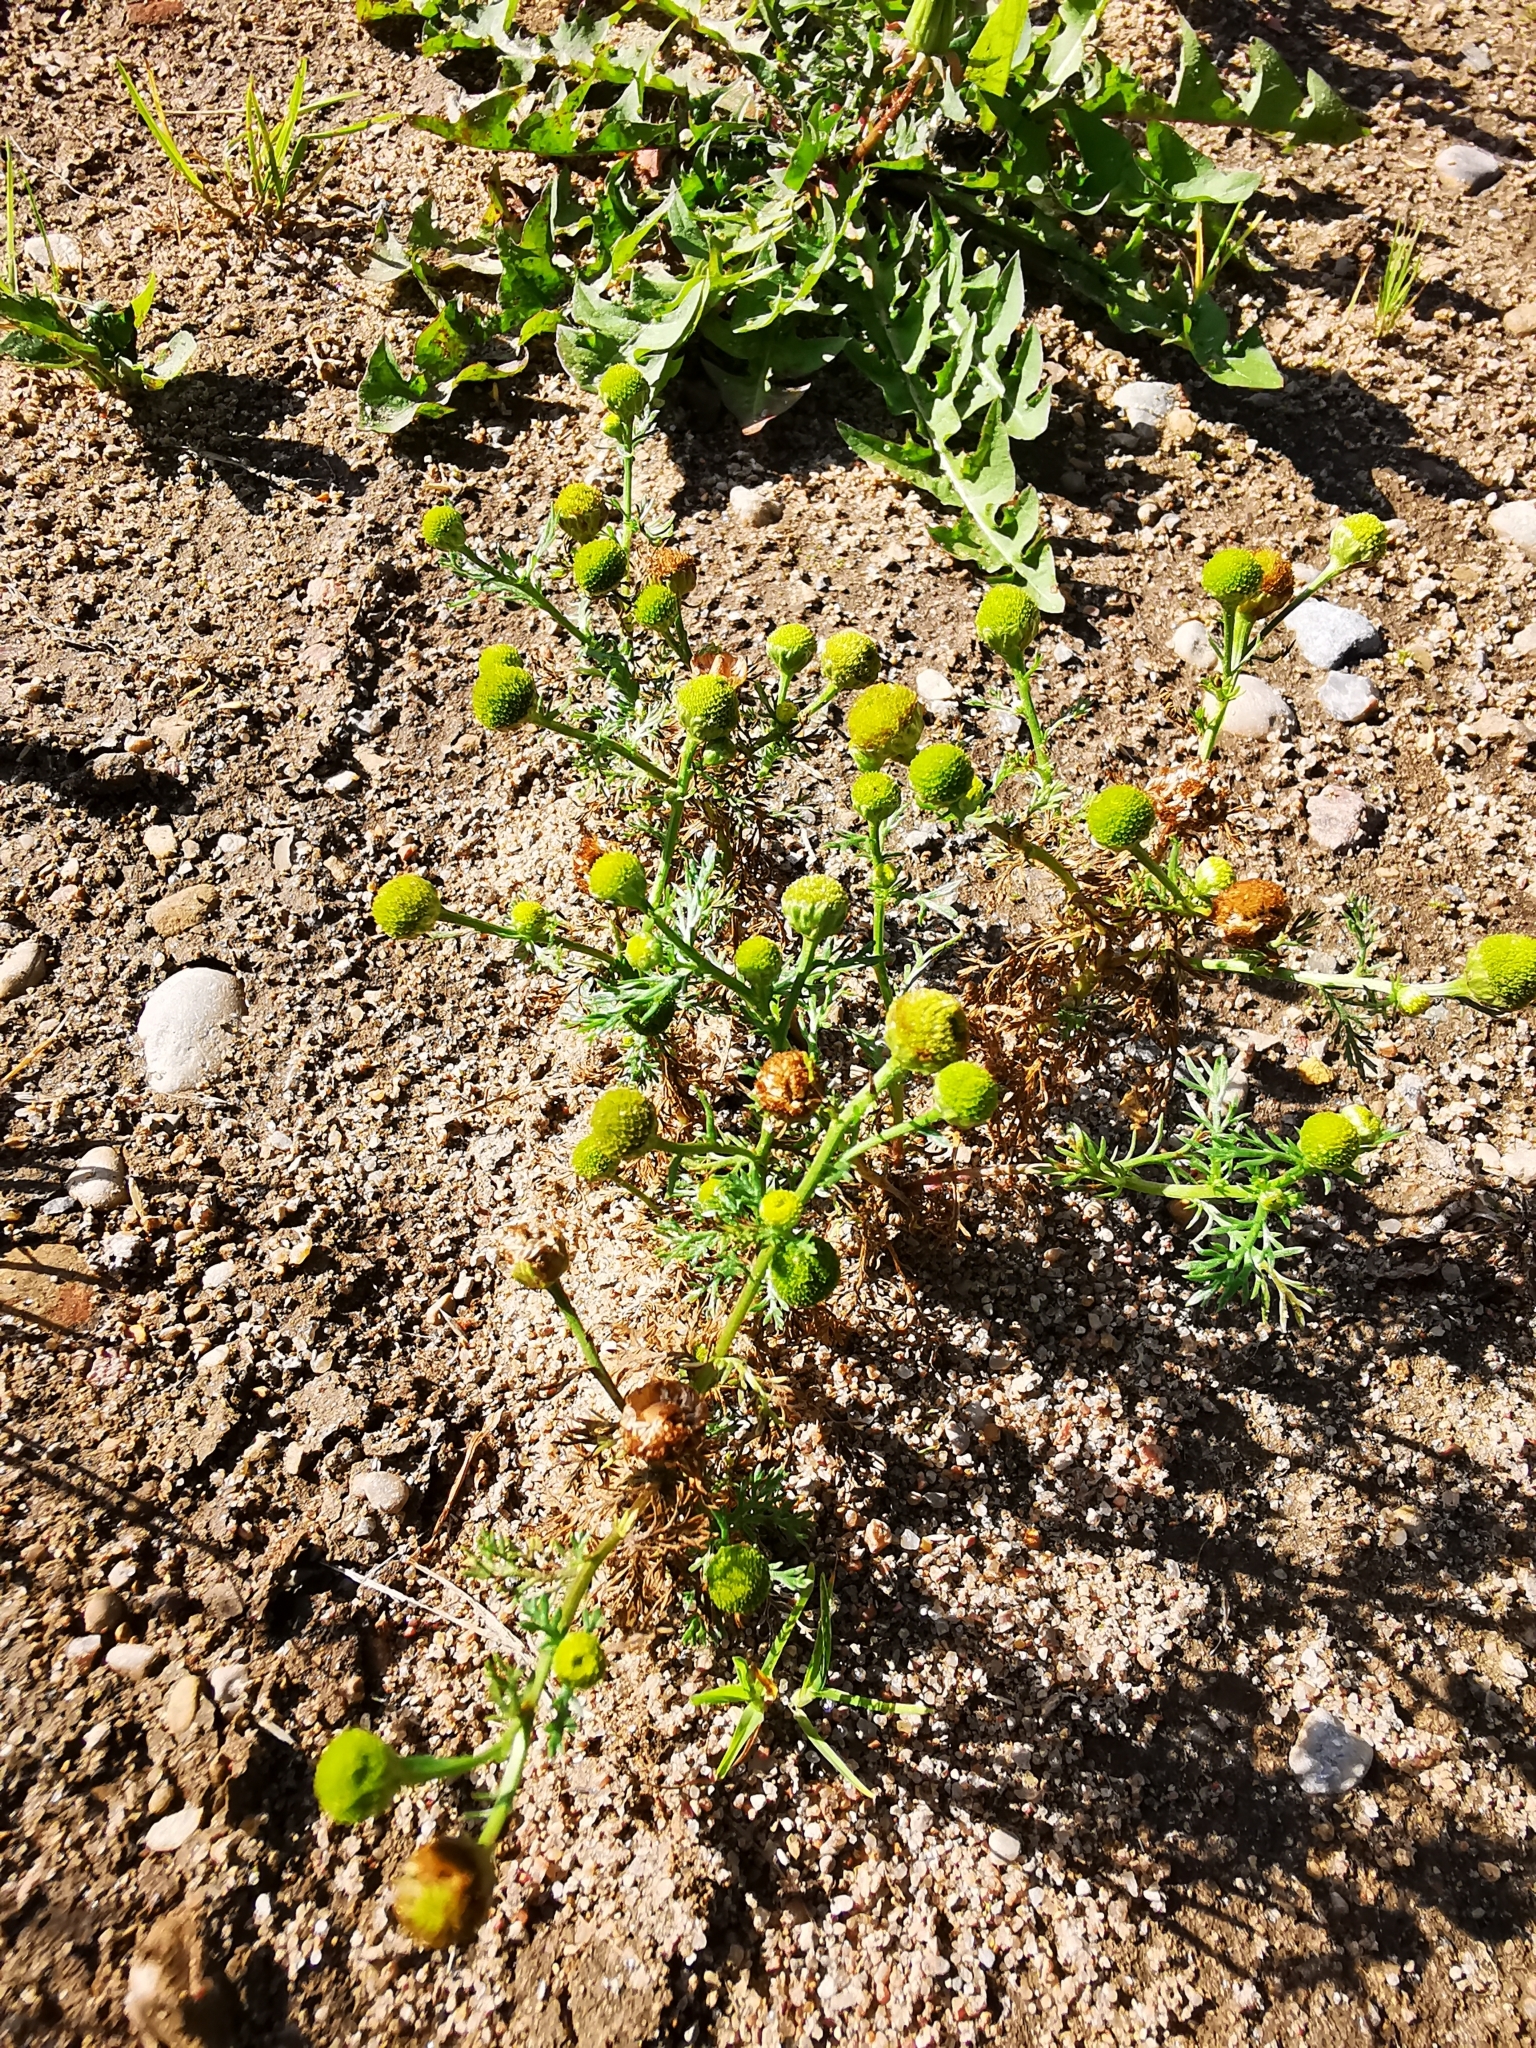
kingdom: Plantae
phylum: Tracheophyta
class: Magnoliopsida
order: Asterales
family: Asteraceae
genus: Matricaria
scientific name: Matricaria discoidea
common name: Disc mayweed
